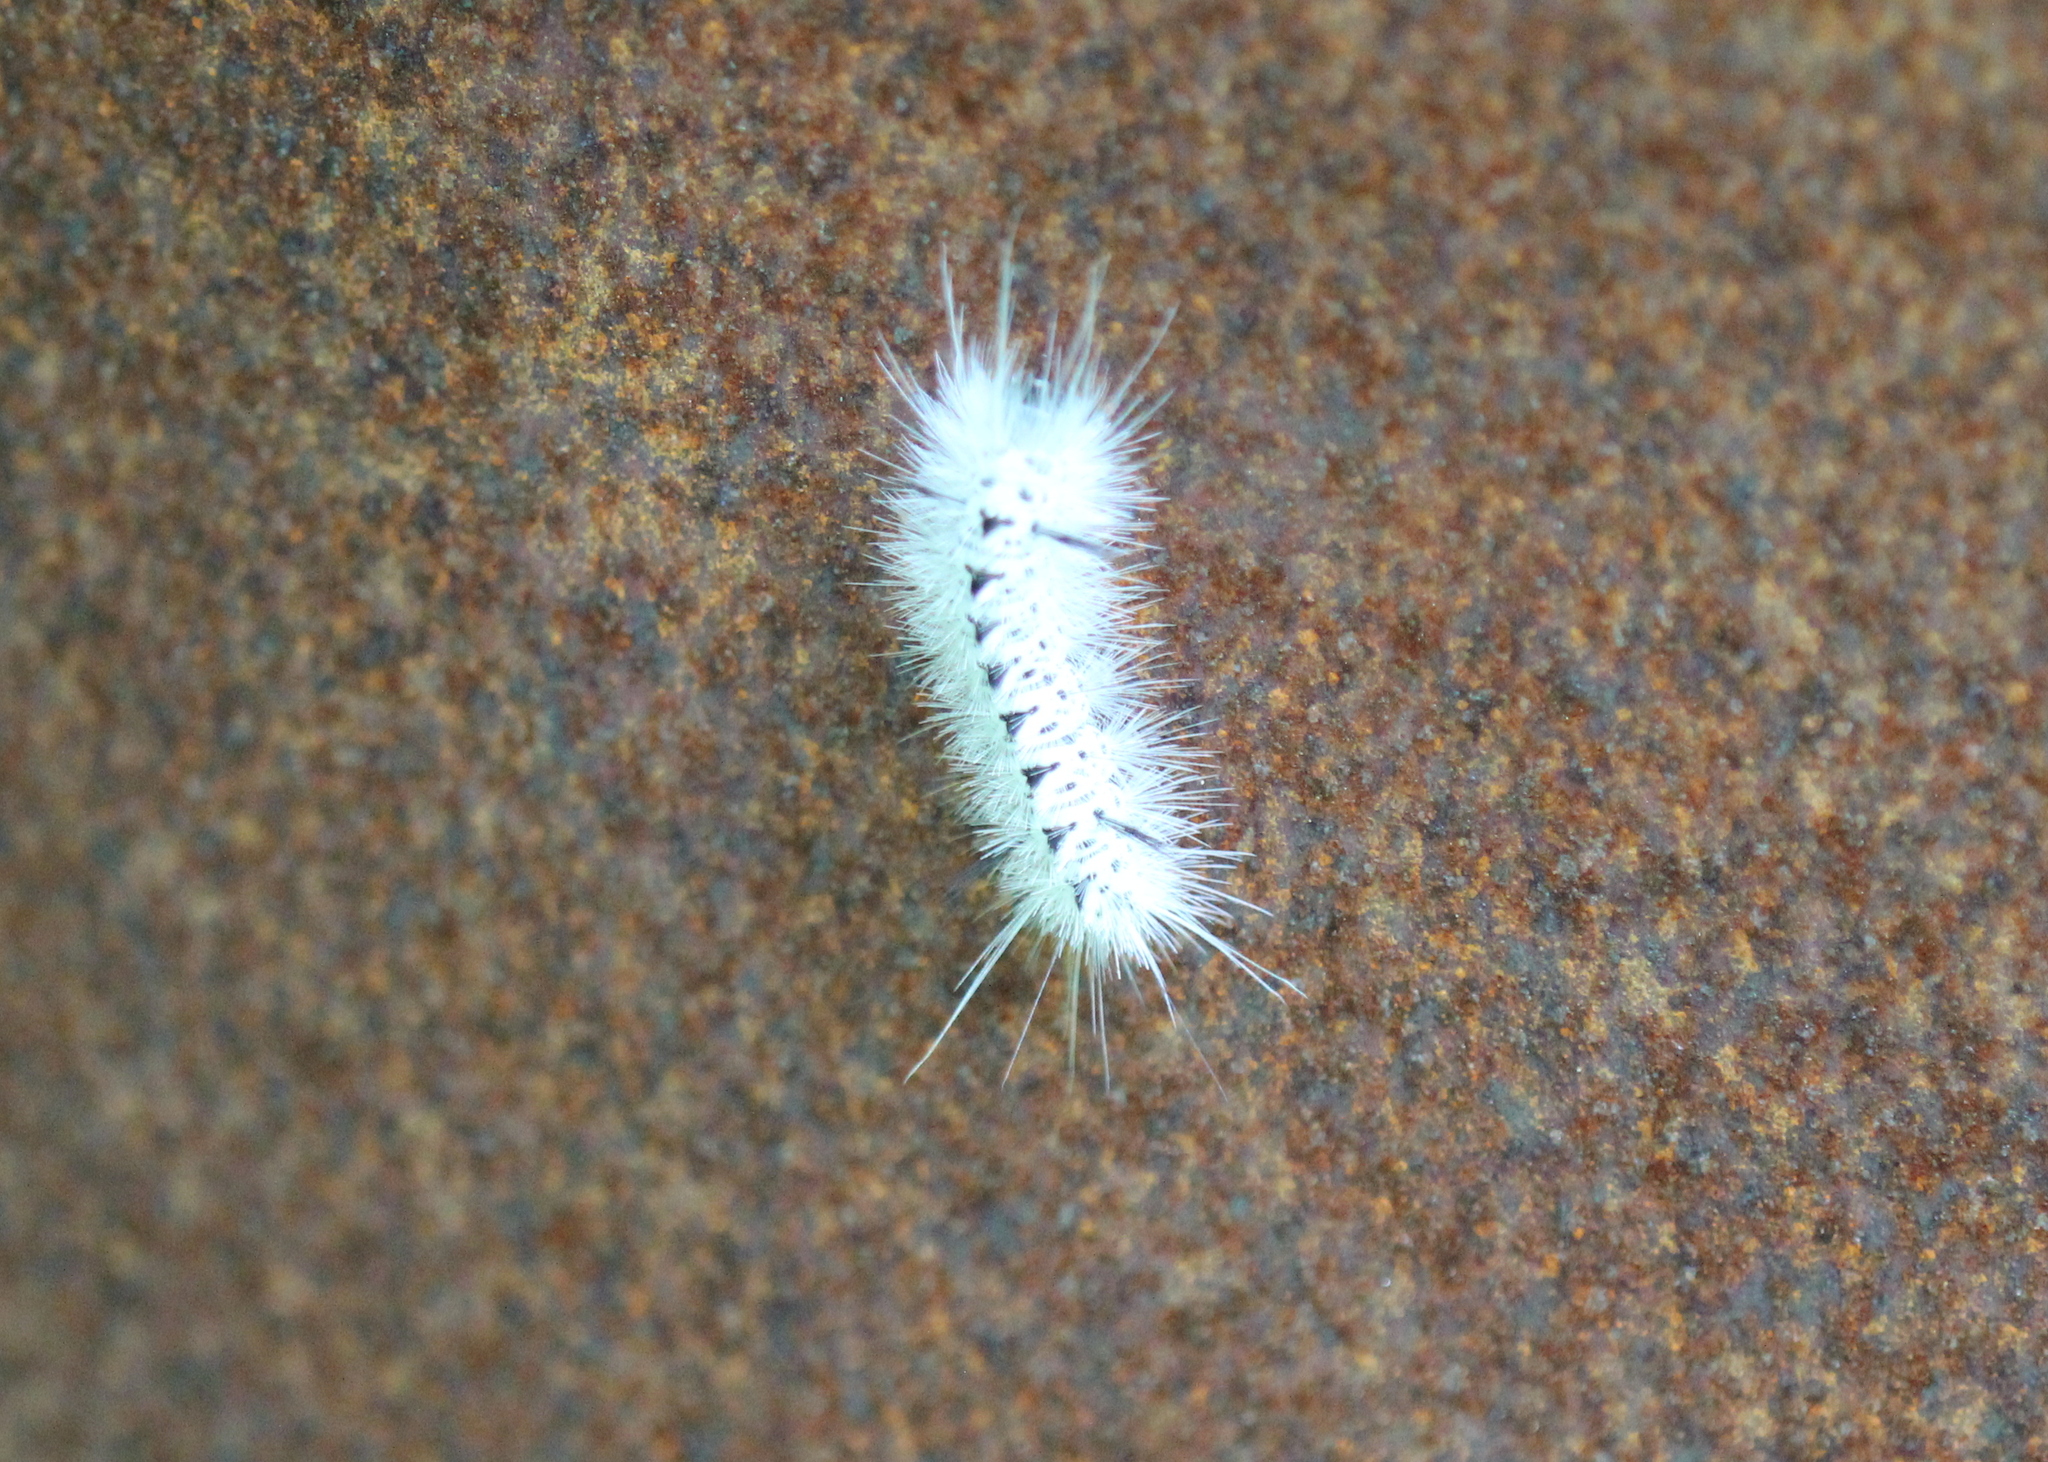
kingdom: Animalia
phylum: Arthropoda
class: Insecta
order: Lepidoptera
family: Erebidae
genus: Lophocampa
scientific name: Lophocampa caryae
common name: Hickory tussock moth
